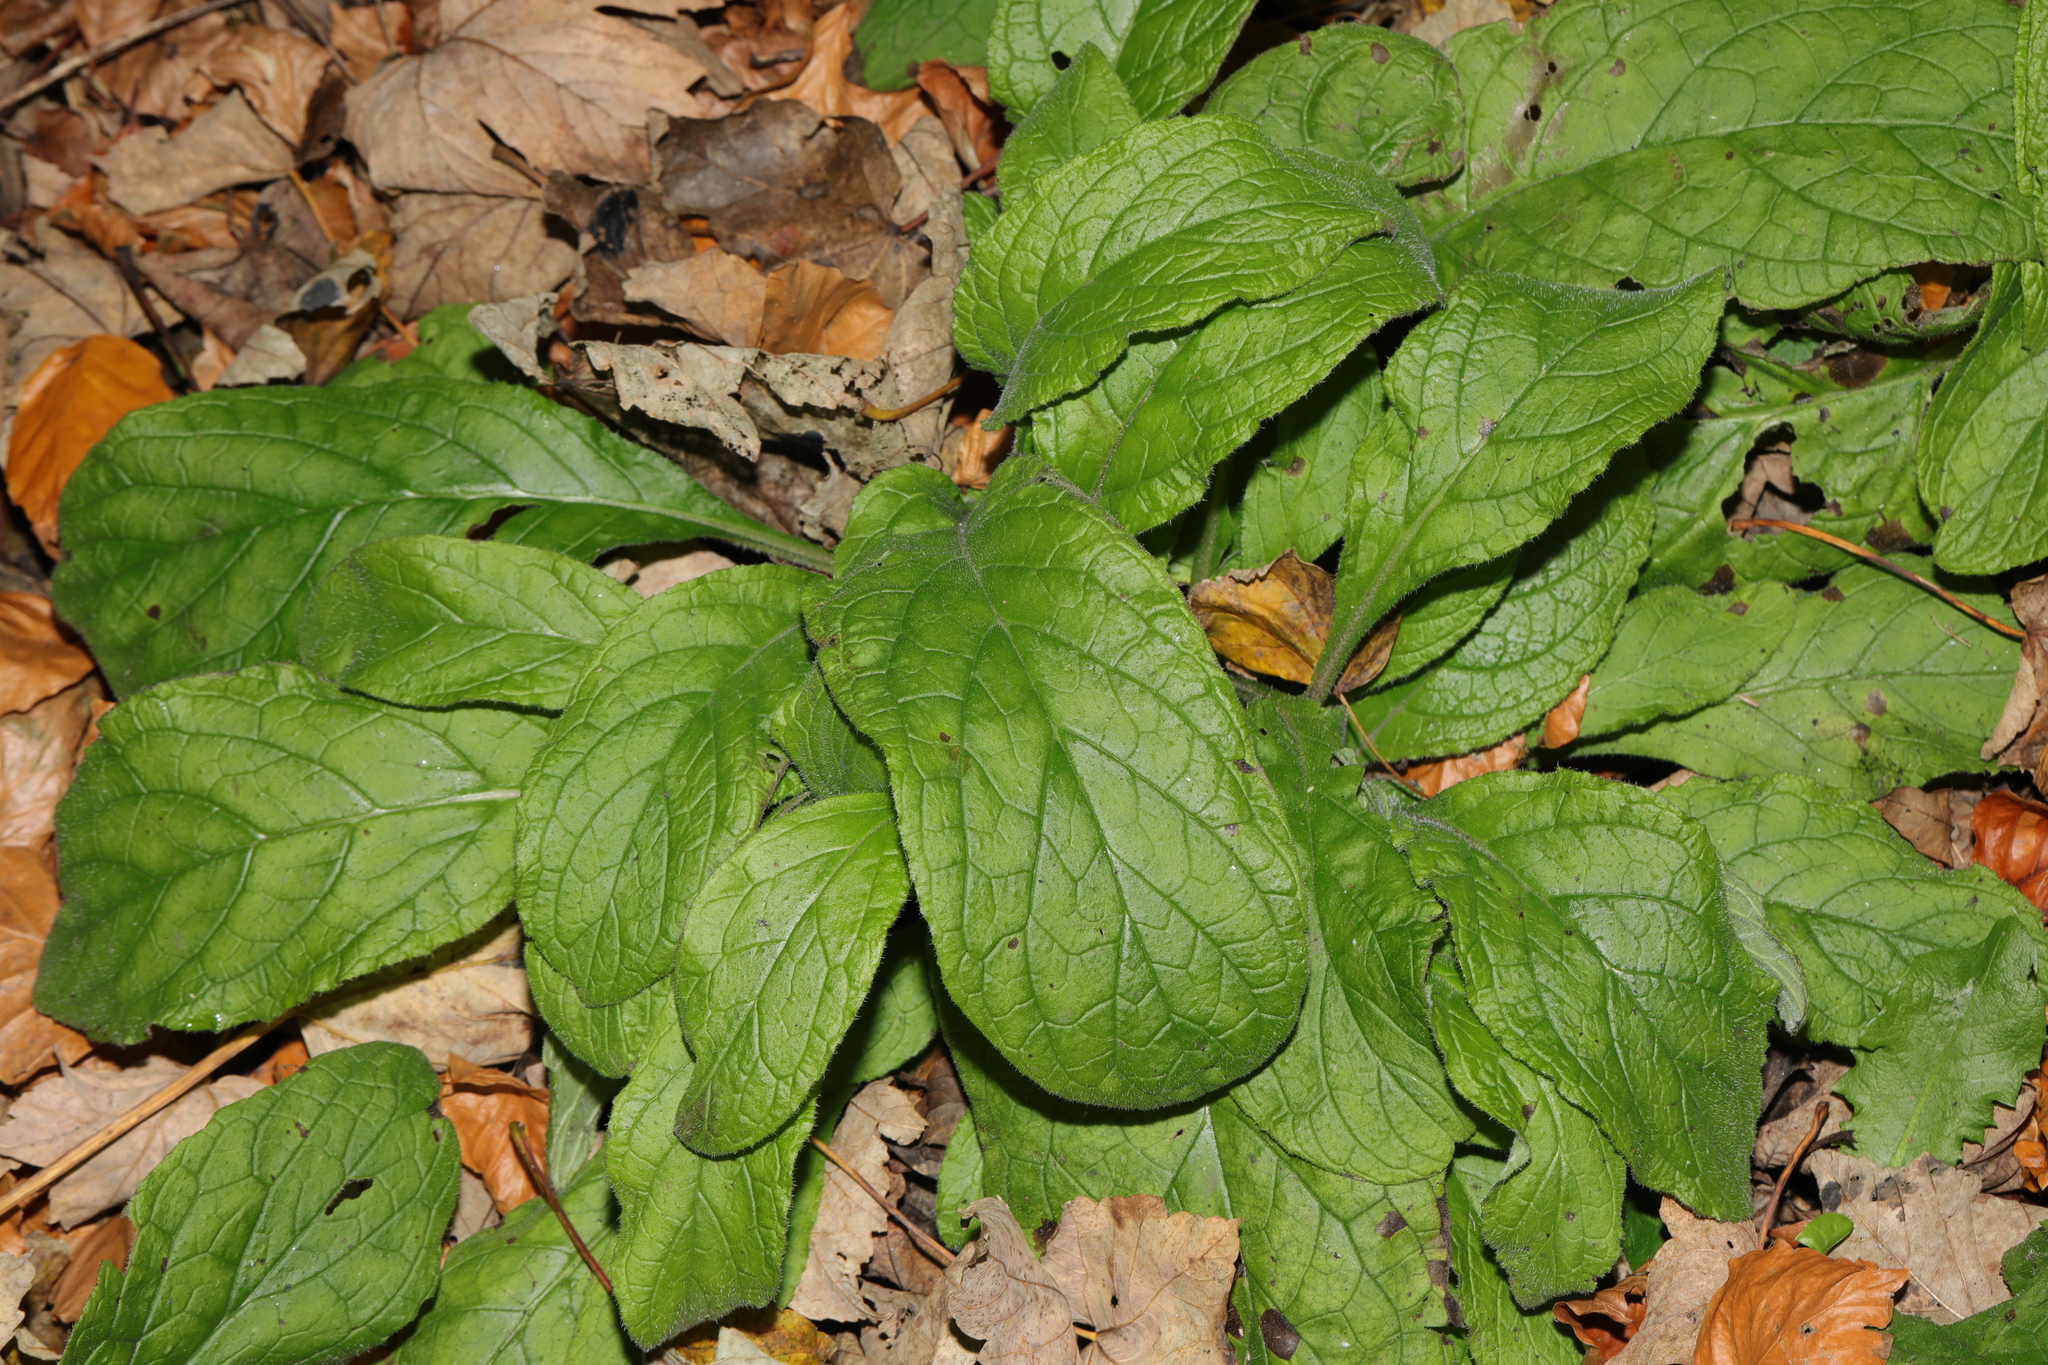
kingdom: Plantae
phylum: Tracheophyta
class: Magnoliopsida
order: Boraginales
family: Boraginaceae
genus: Pentaglottis
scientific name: Pentaglottis sempervirens
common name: Green alkanet
